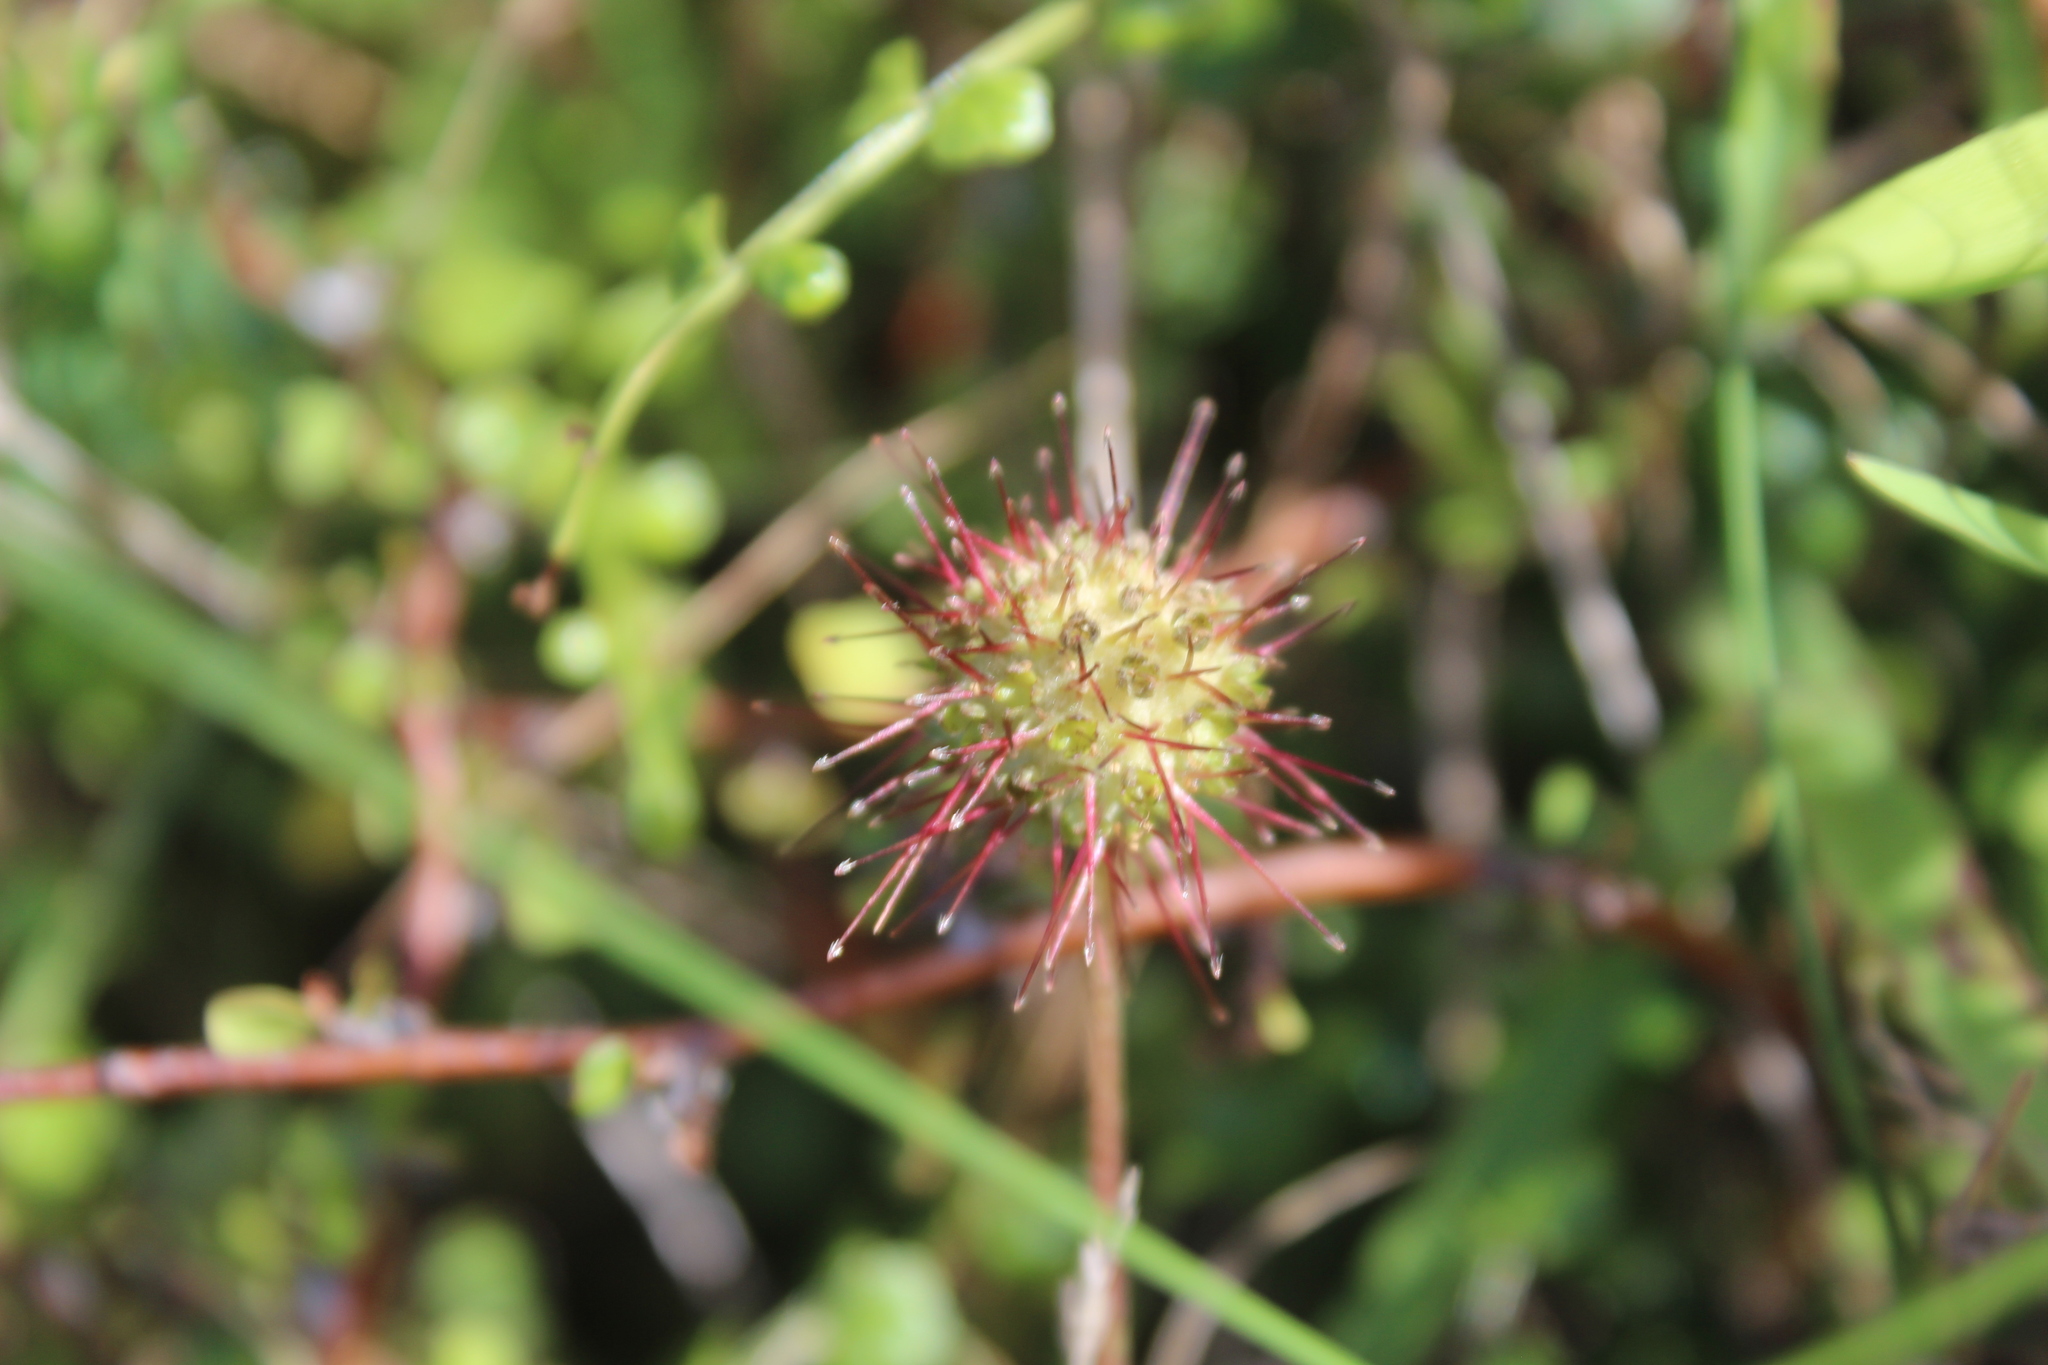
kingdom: Plantae
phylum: Tracheophyta
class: Magnoliopsida
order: Rosales
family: Rosaceae
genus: Acaena
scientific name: Acaena novae-zelandiae
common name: Pirri-pirri-bur
